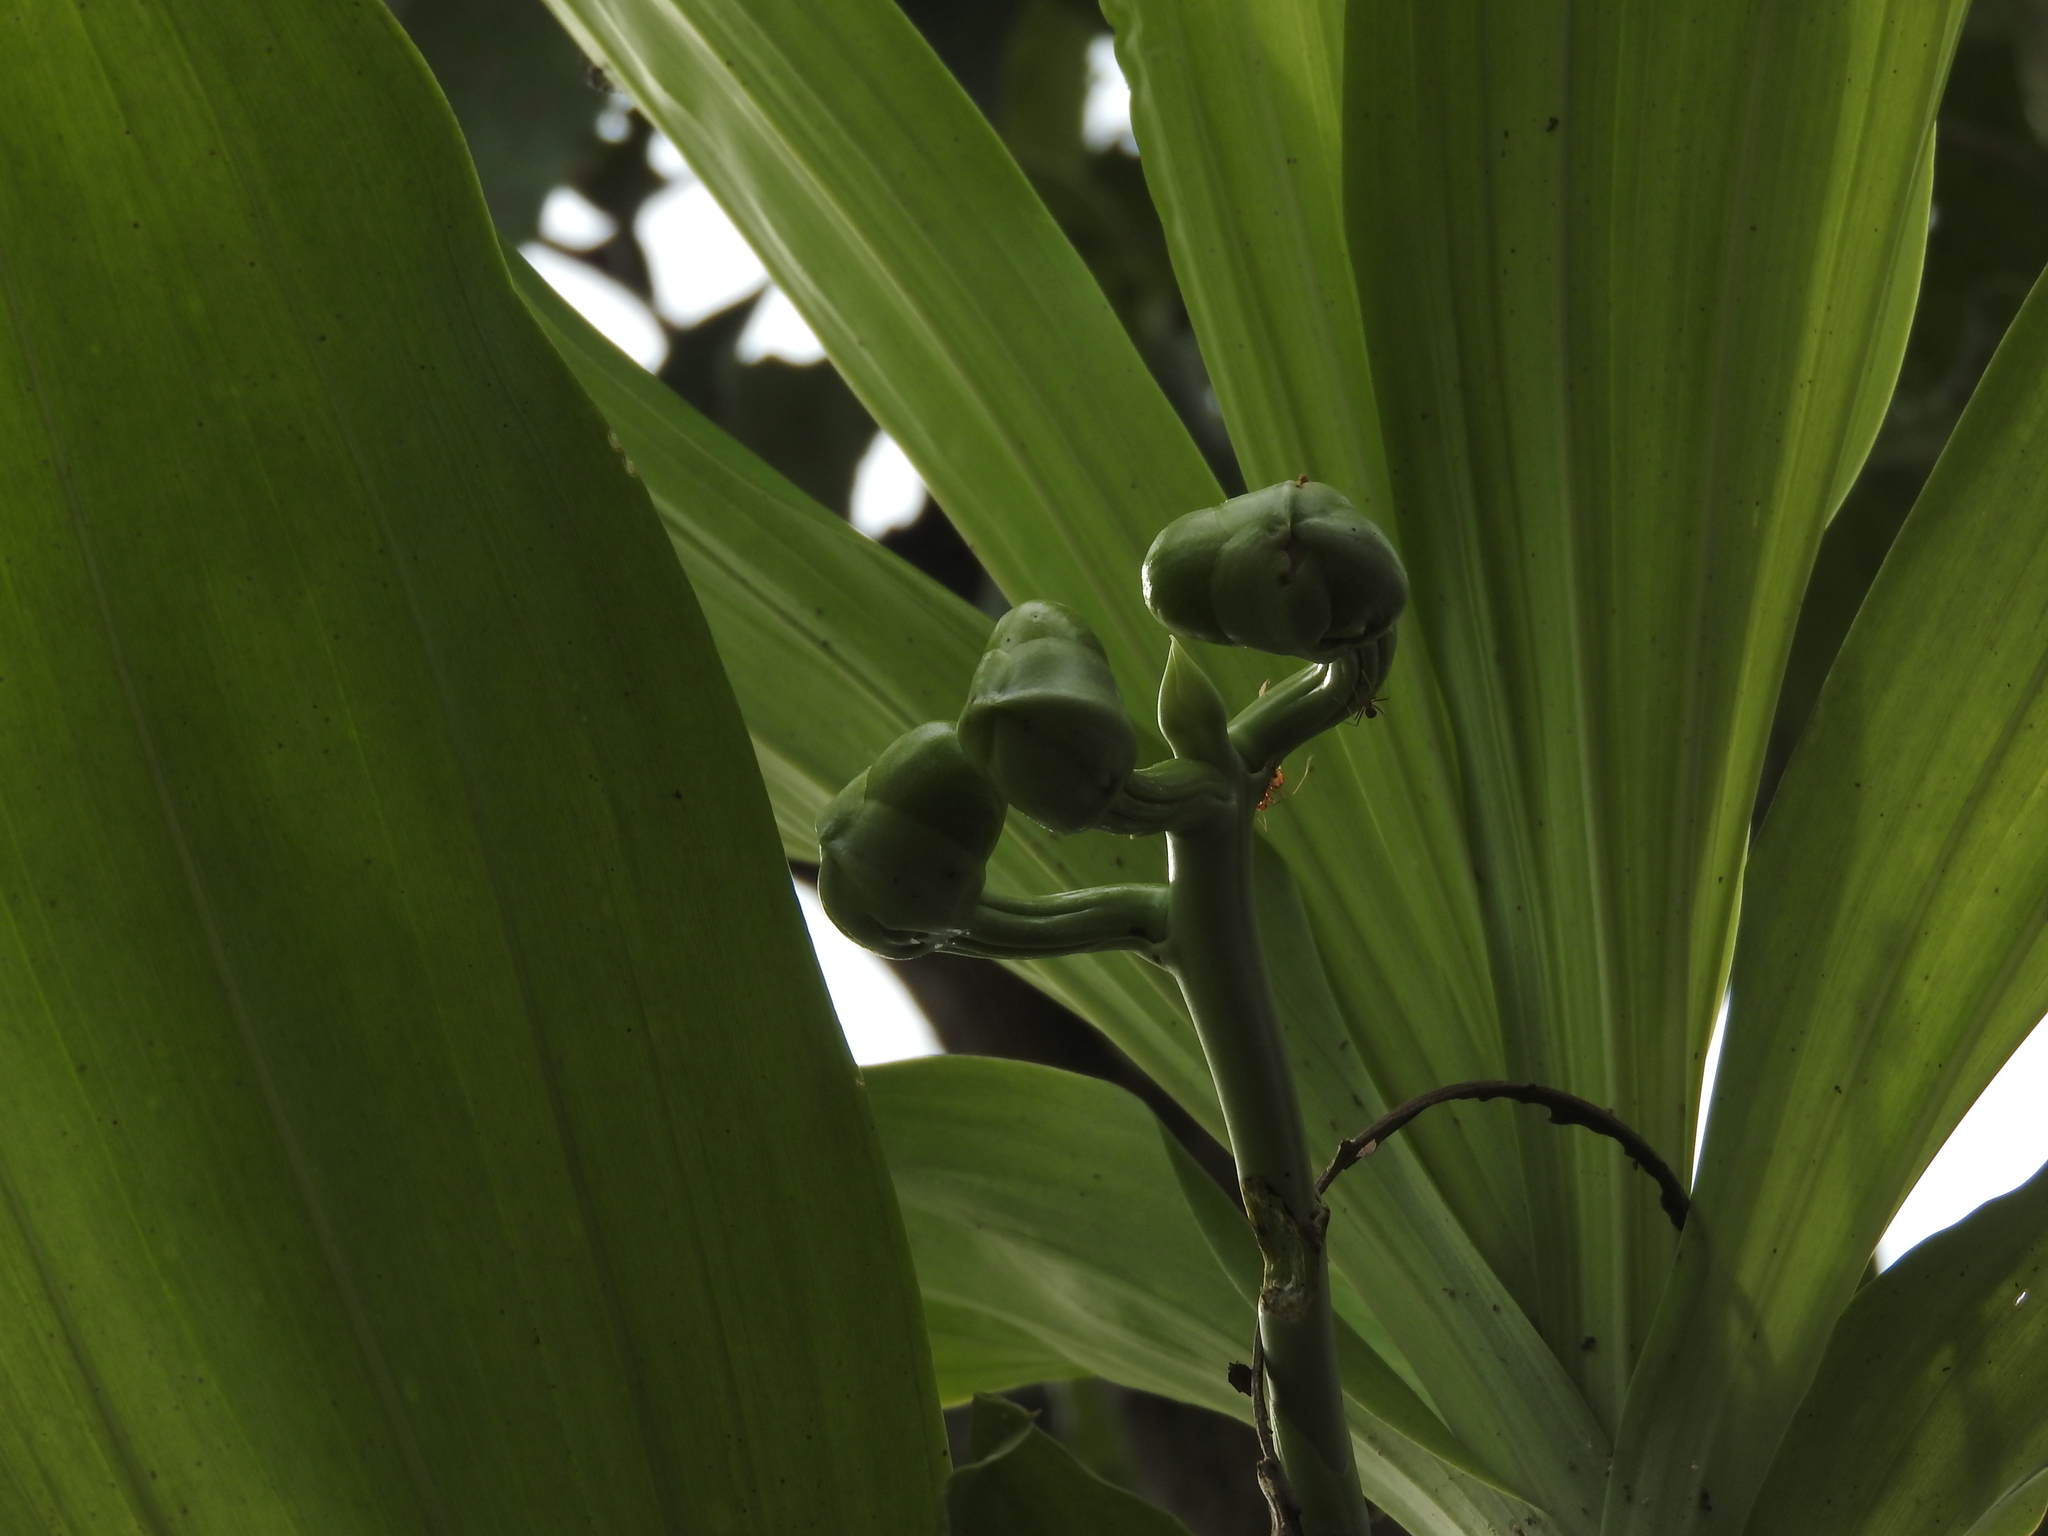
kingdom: Plantae
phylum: Tracheophyta
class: Liliopsida
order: Asparagales
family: Orchidaceae
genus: Catasetum
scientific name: Catasetum integerrimum
